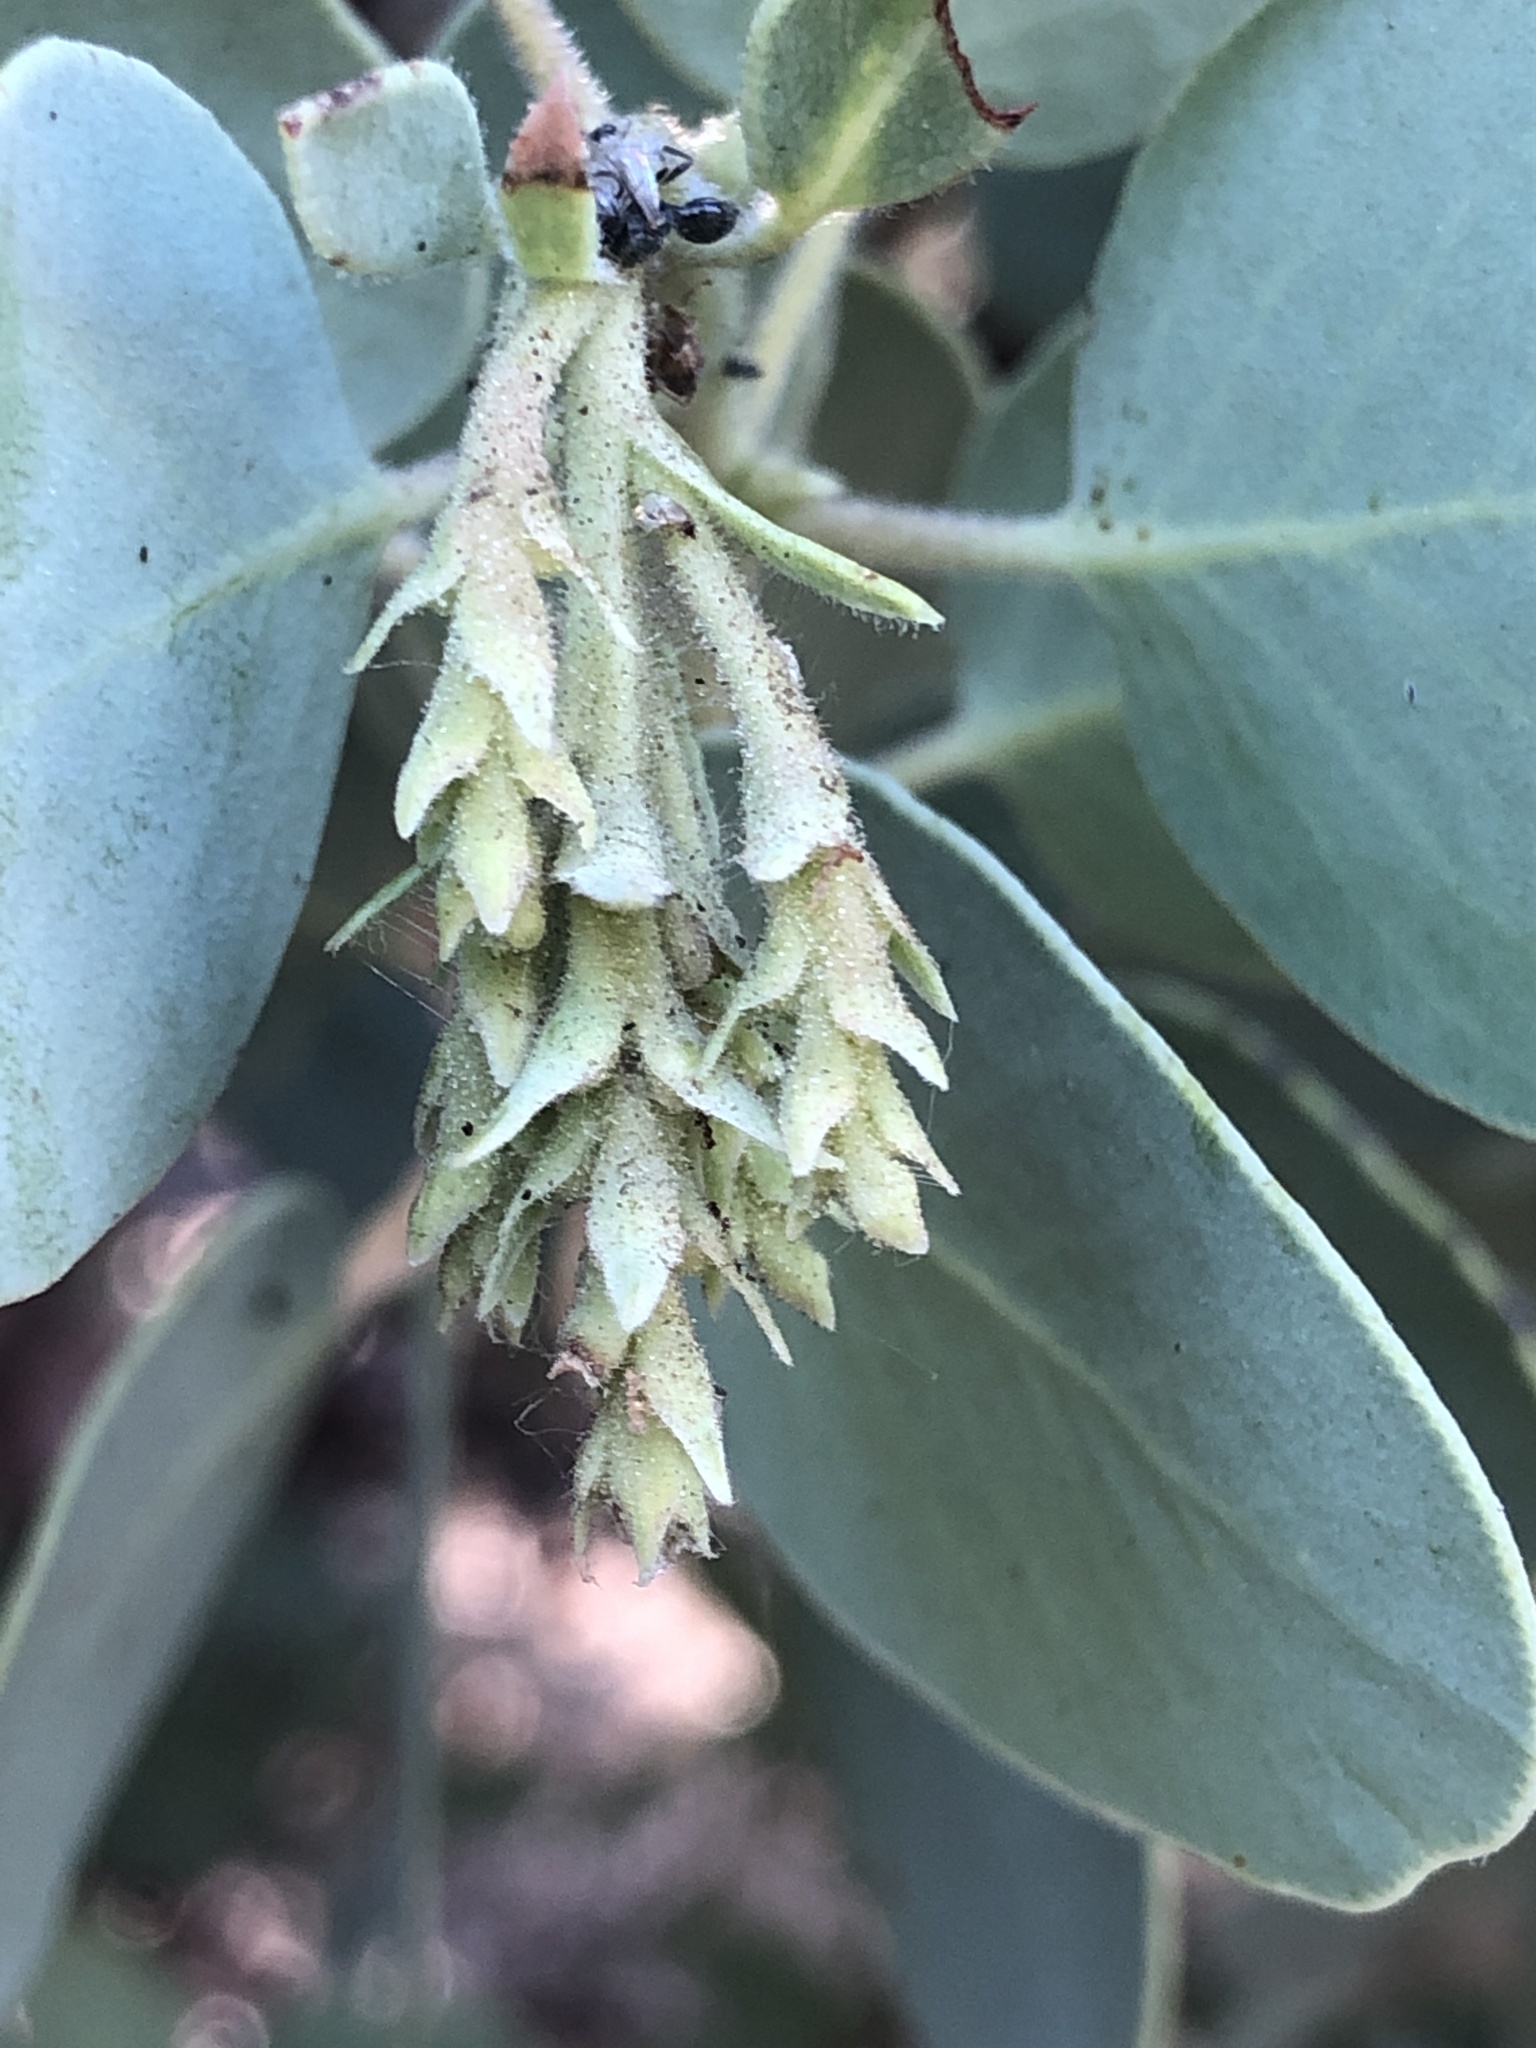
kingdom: Plantae
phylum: Tracheophyta
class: Magnoliopsida
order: Ericales
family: Ericaceae
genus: Arctostaphylos
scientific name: Arctostaphylos glauca
